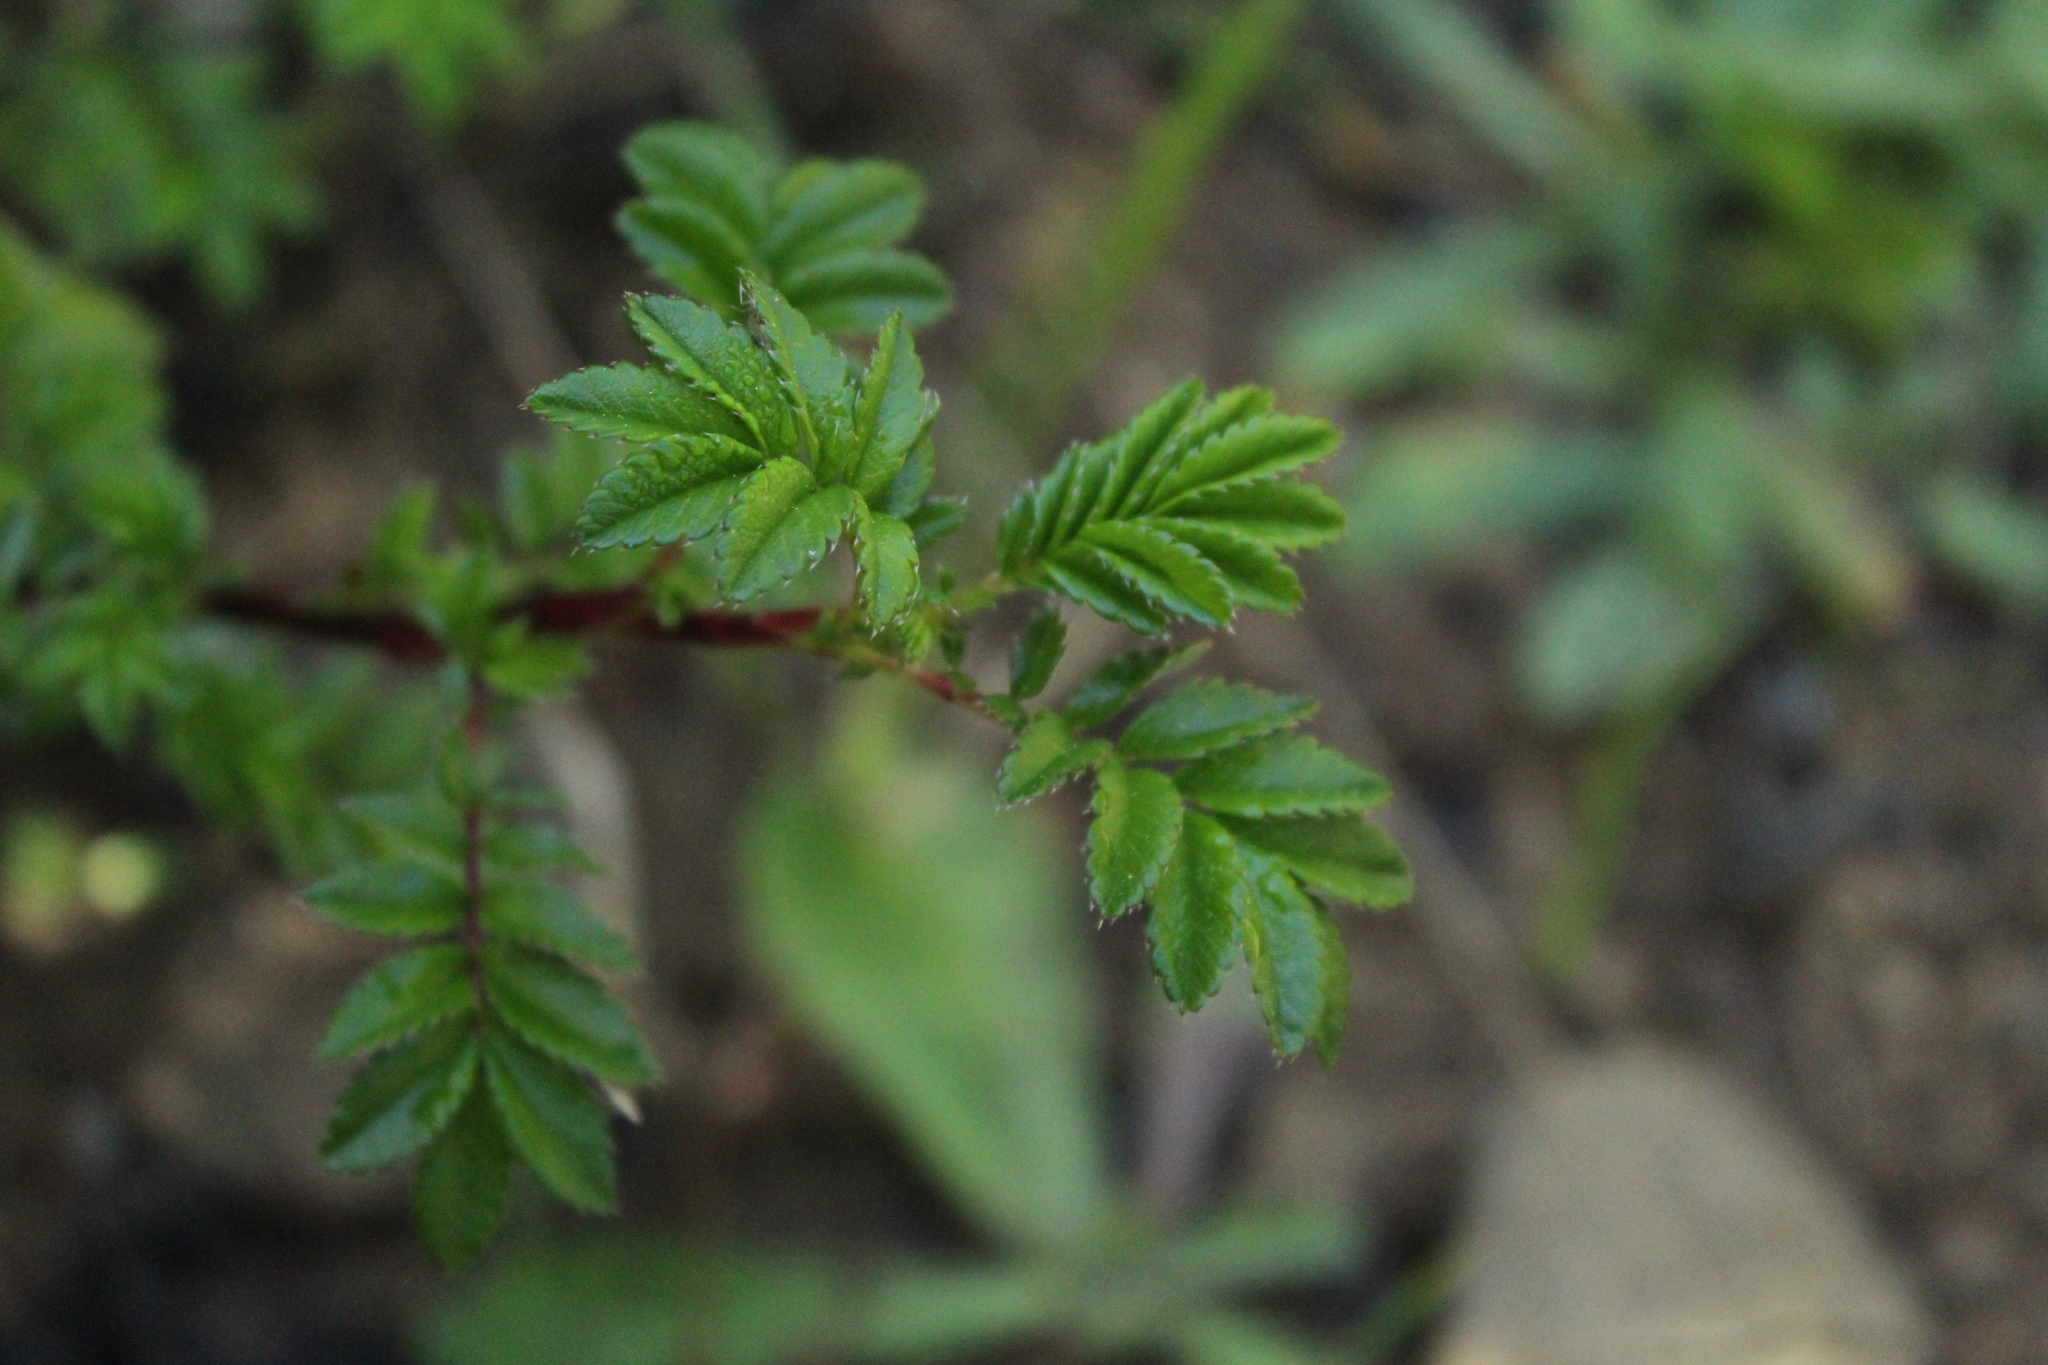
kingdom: Plantae
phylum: Tracheophyta
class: Magnoliopsida
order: Rosales
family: Rosaceae
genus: Acaena
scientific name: Acaena elongata
